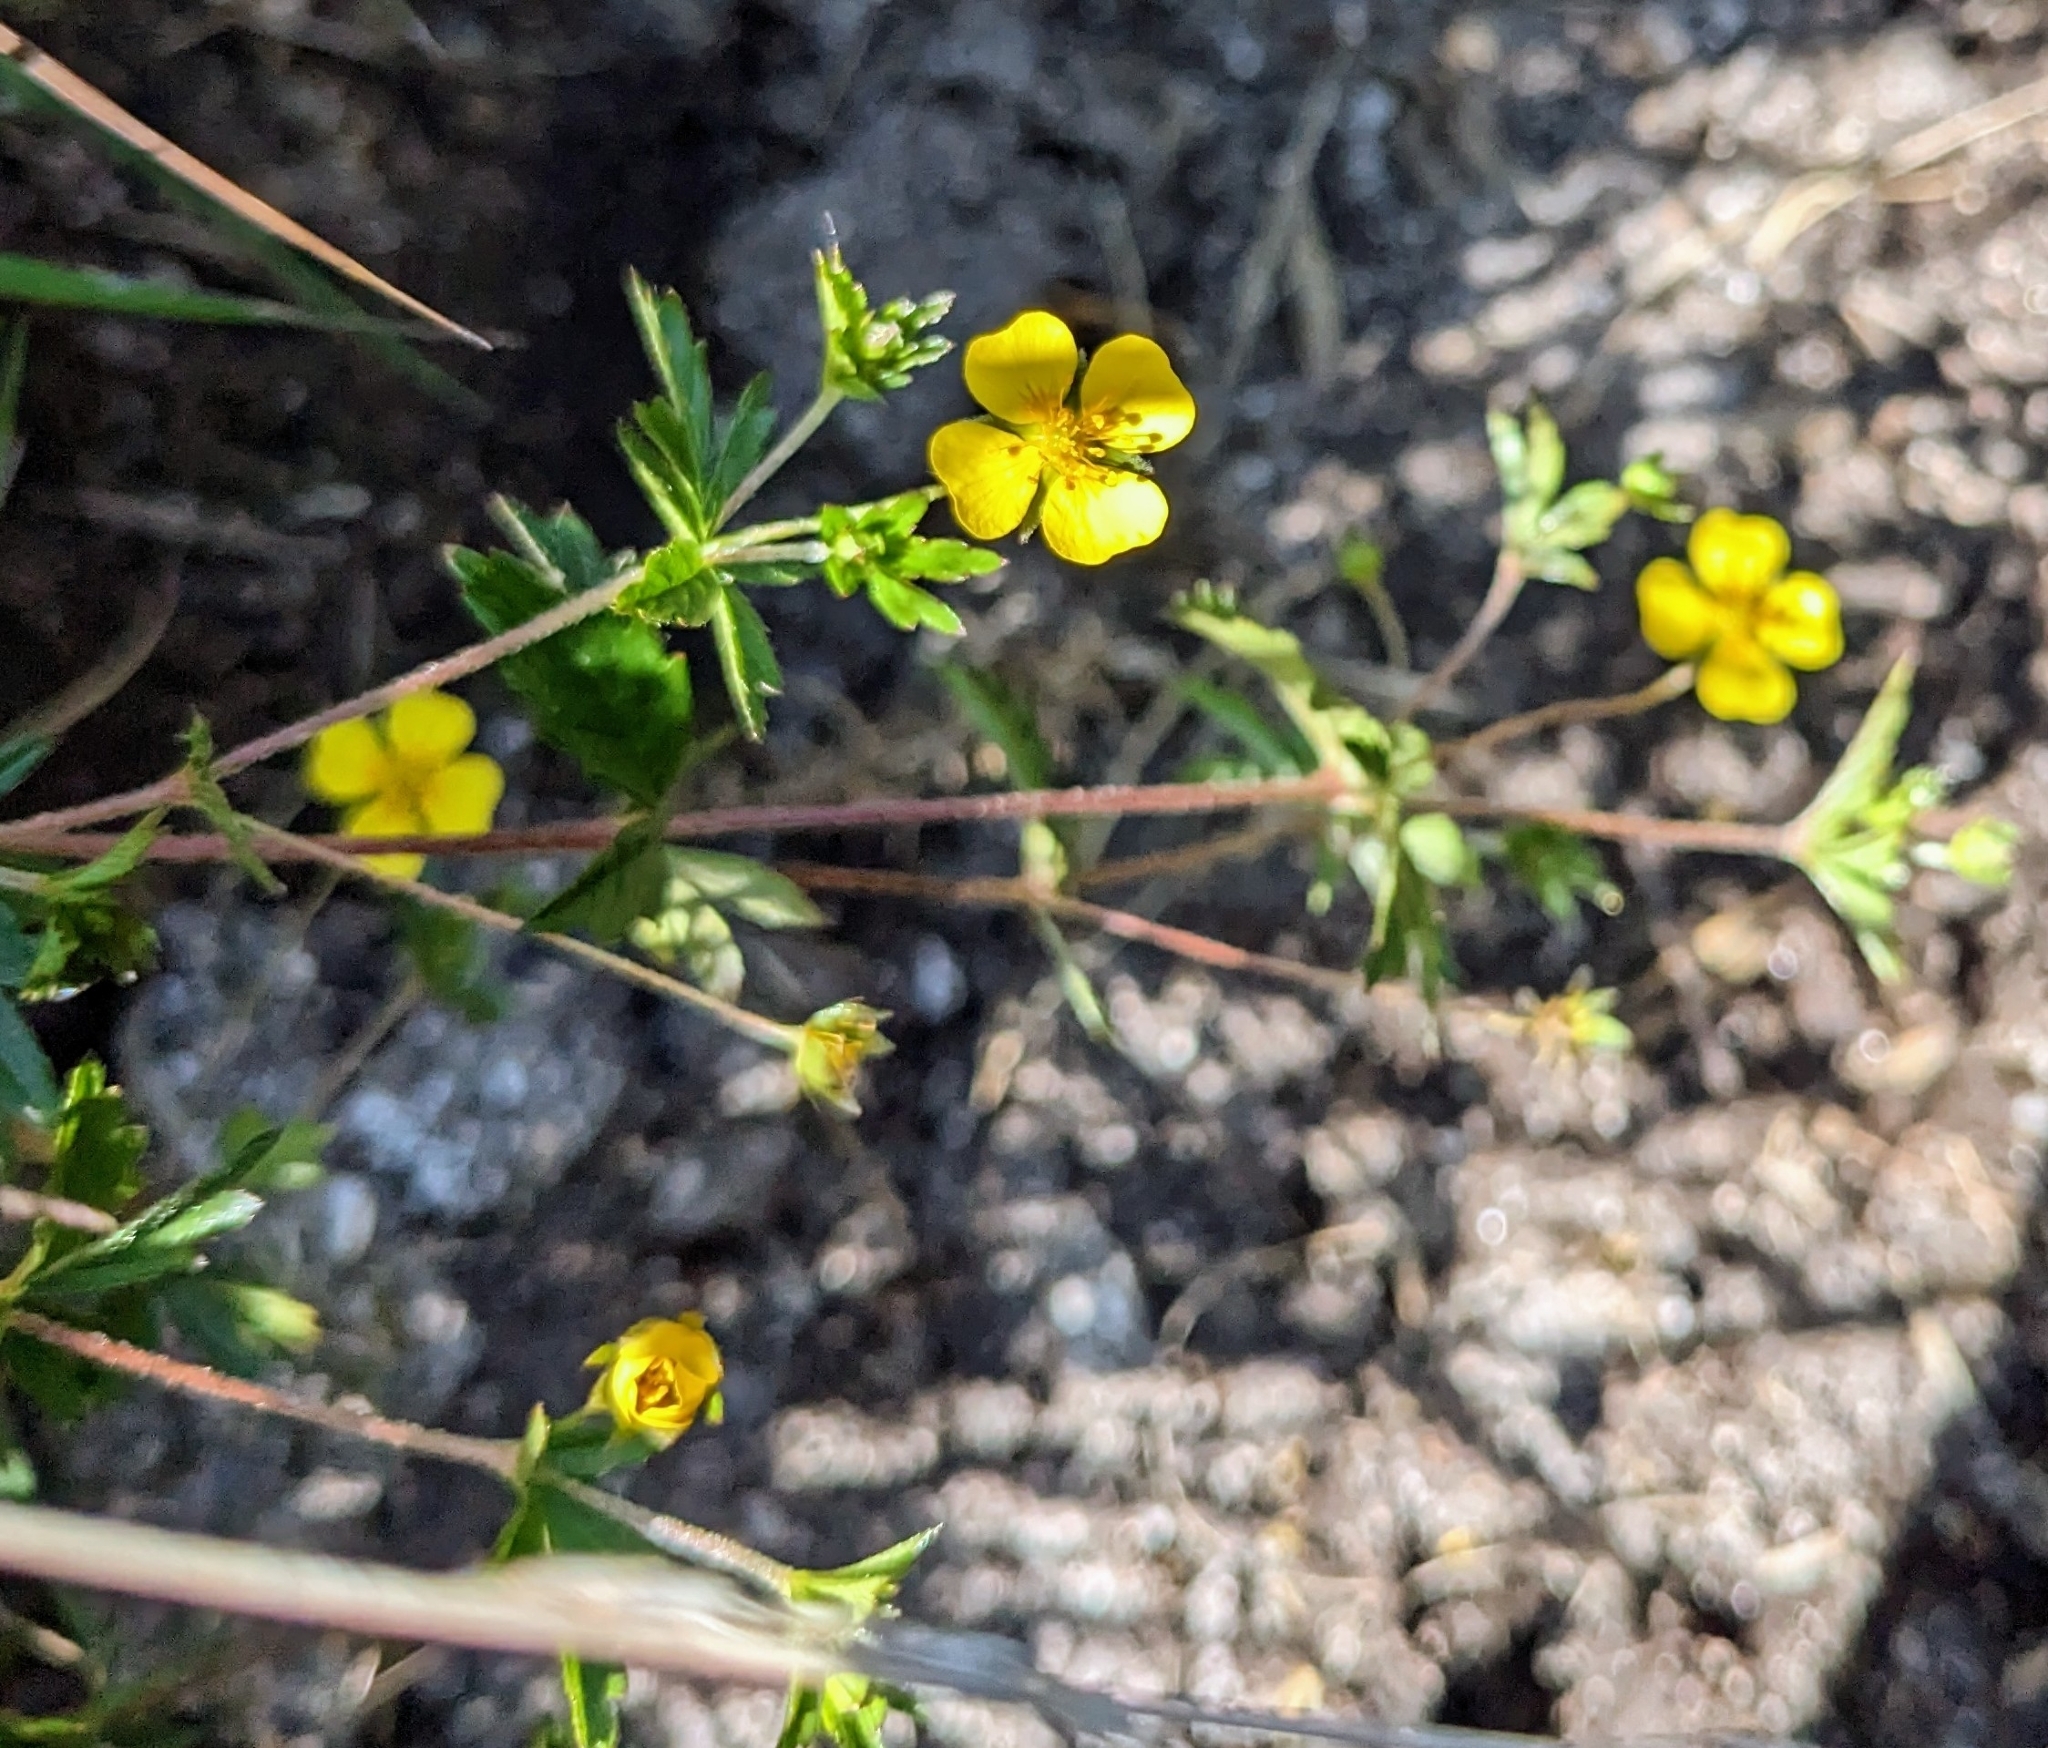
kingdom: Plantae
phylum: Tracheophyta
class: Magnoliopsida
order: Rosales
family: Rosaceae
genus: Potentilla
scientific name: Potentilla erecta
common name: Tormentil
